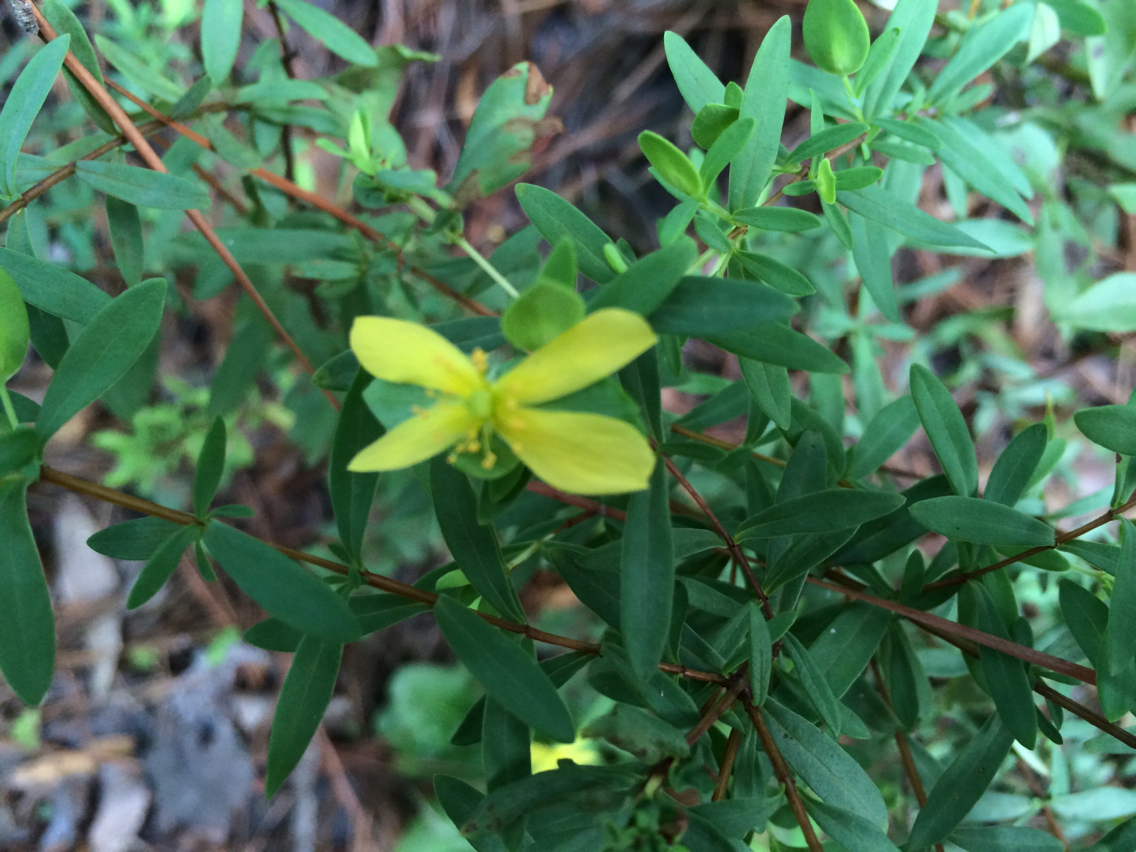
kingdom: Plantae
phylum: Tracheophyta
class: Magnoliopsida
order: Malpighiales
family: Hypericaceae
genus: Hypericum
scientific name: Hypericum hypericoides
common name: St. andrew's cross
